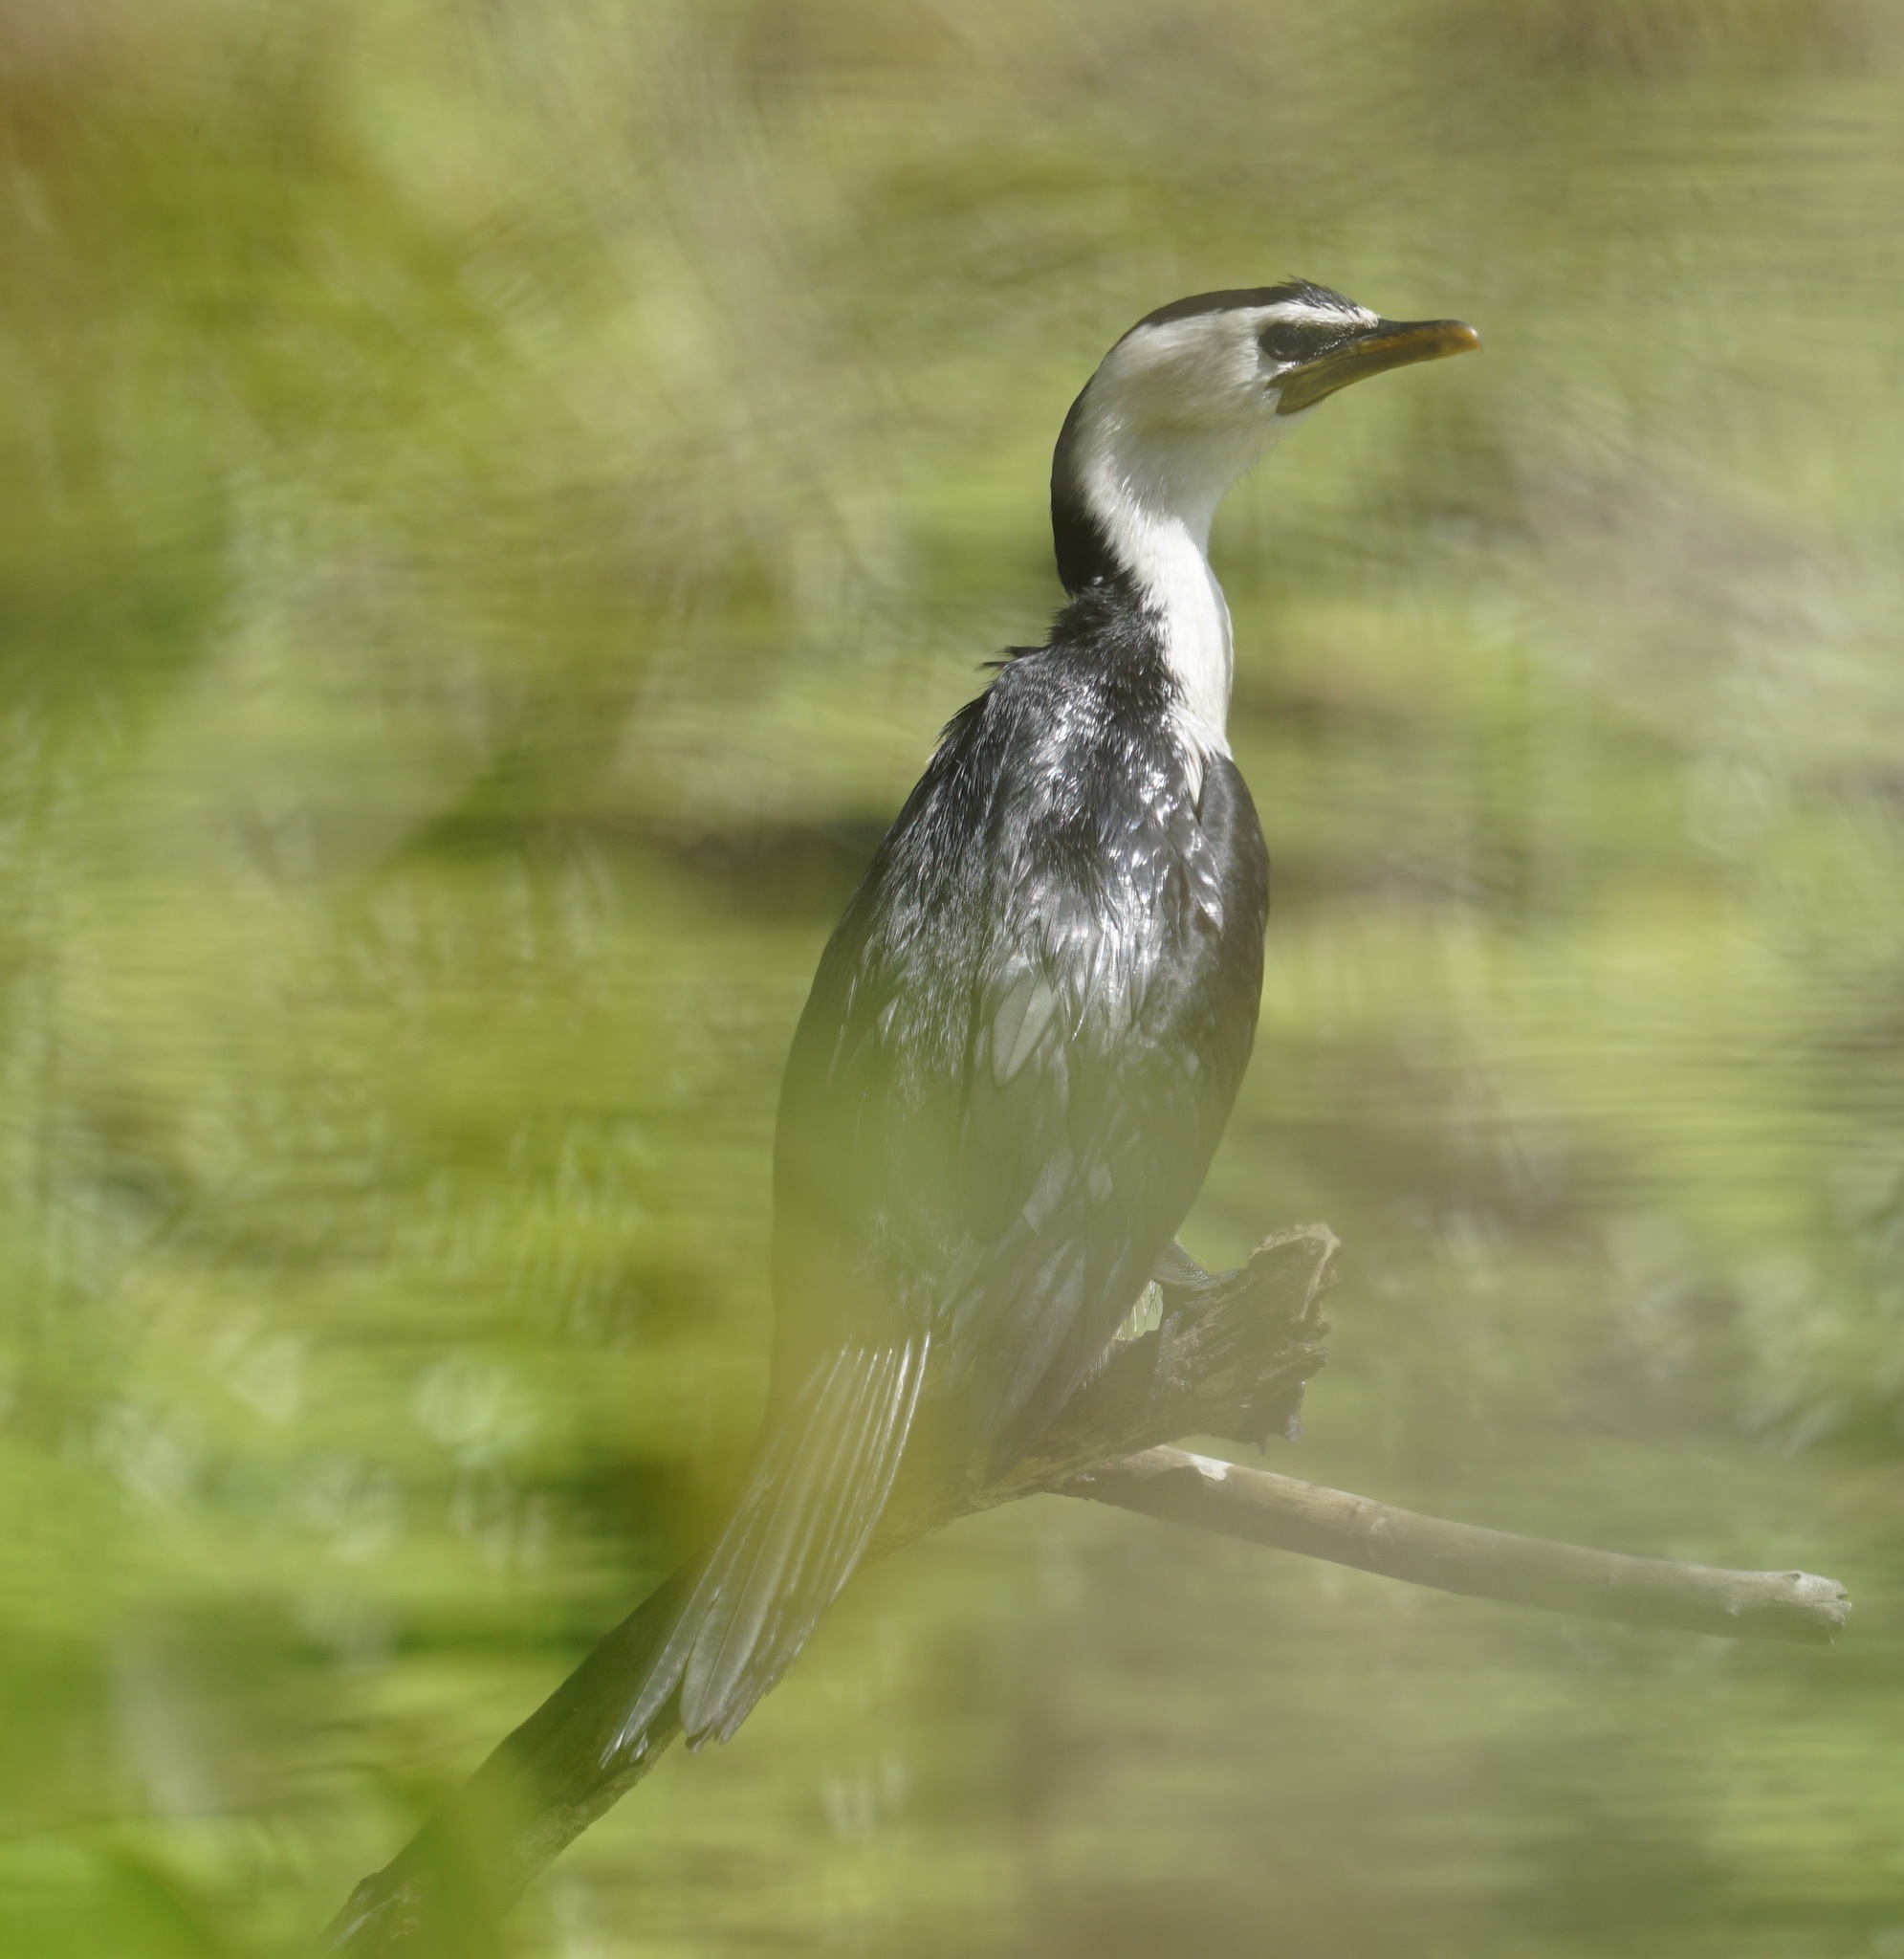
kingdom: Animalia
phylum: Chordata
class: Aves
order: Suliformes
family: Phalacrocoracidae
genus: Microcarbo
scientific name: Microcarbo melanoleucos
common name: Little pied cormorant
